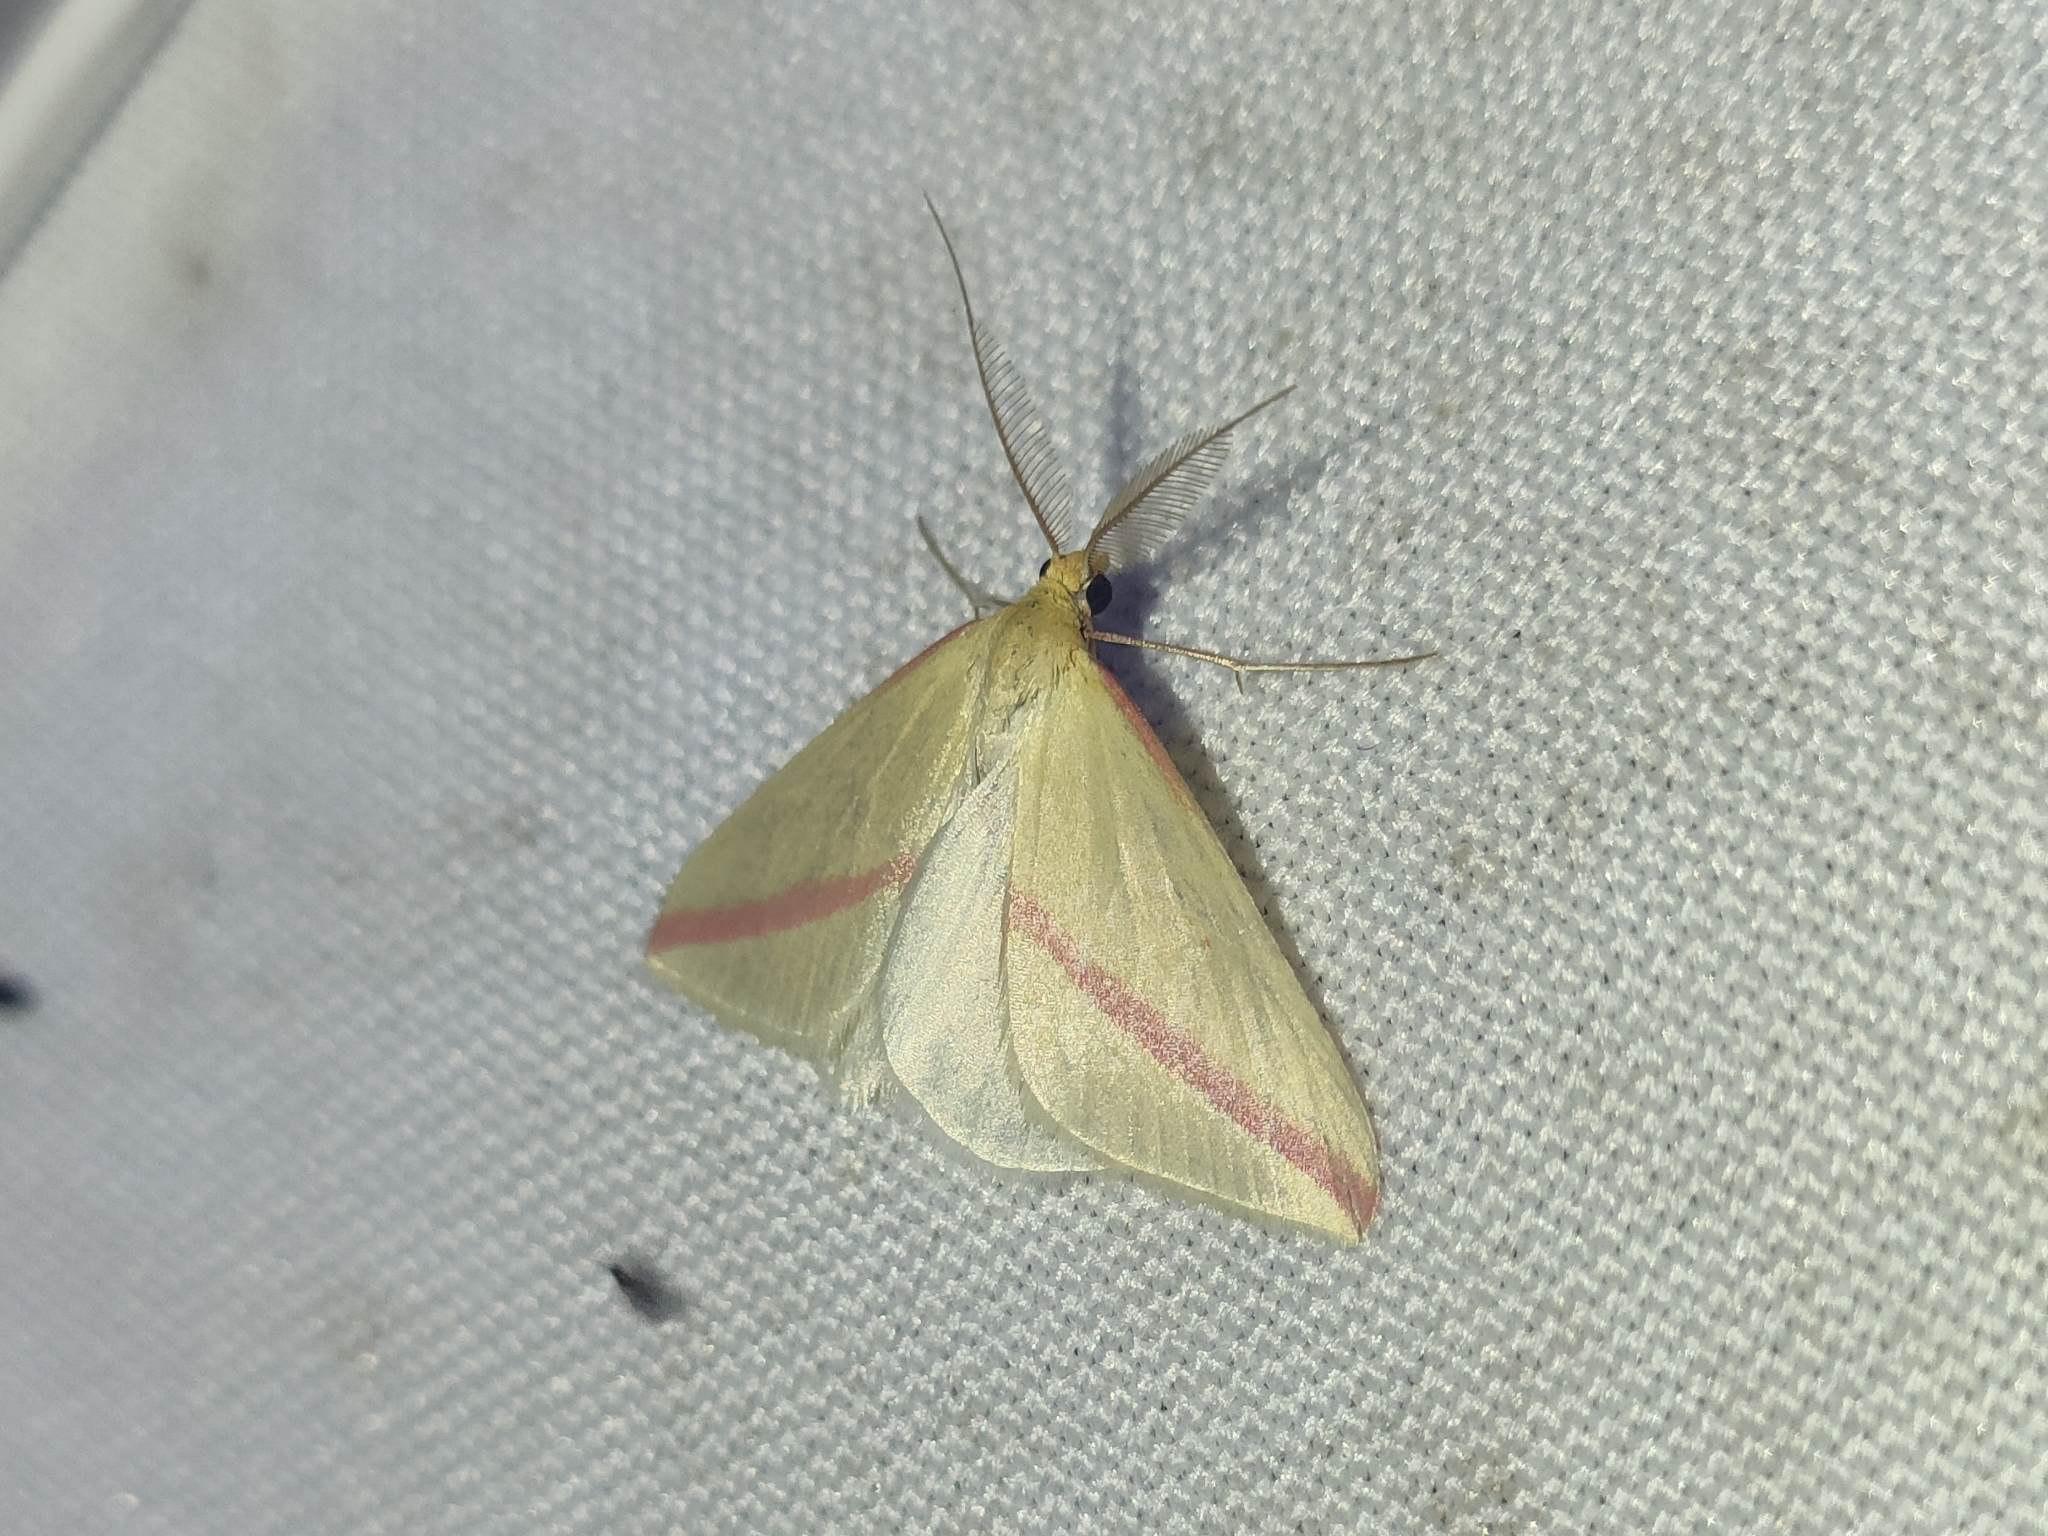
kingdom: Animalia
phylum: Arthropoda
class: Insecta
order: Lepidoptera
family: Geometridae
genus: Rhodometra
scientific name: Rhodometra sacraria
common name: Vestal
